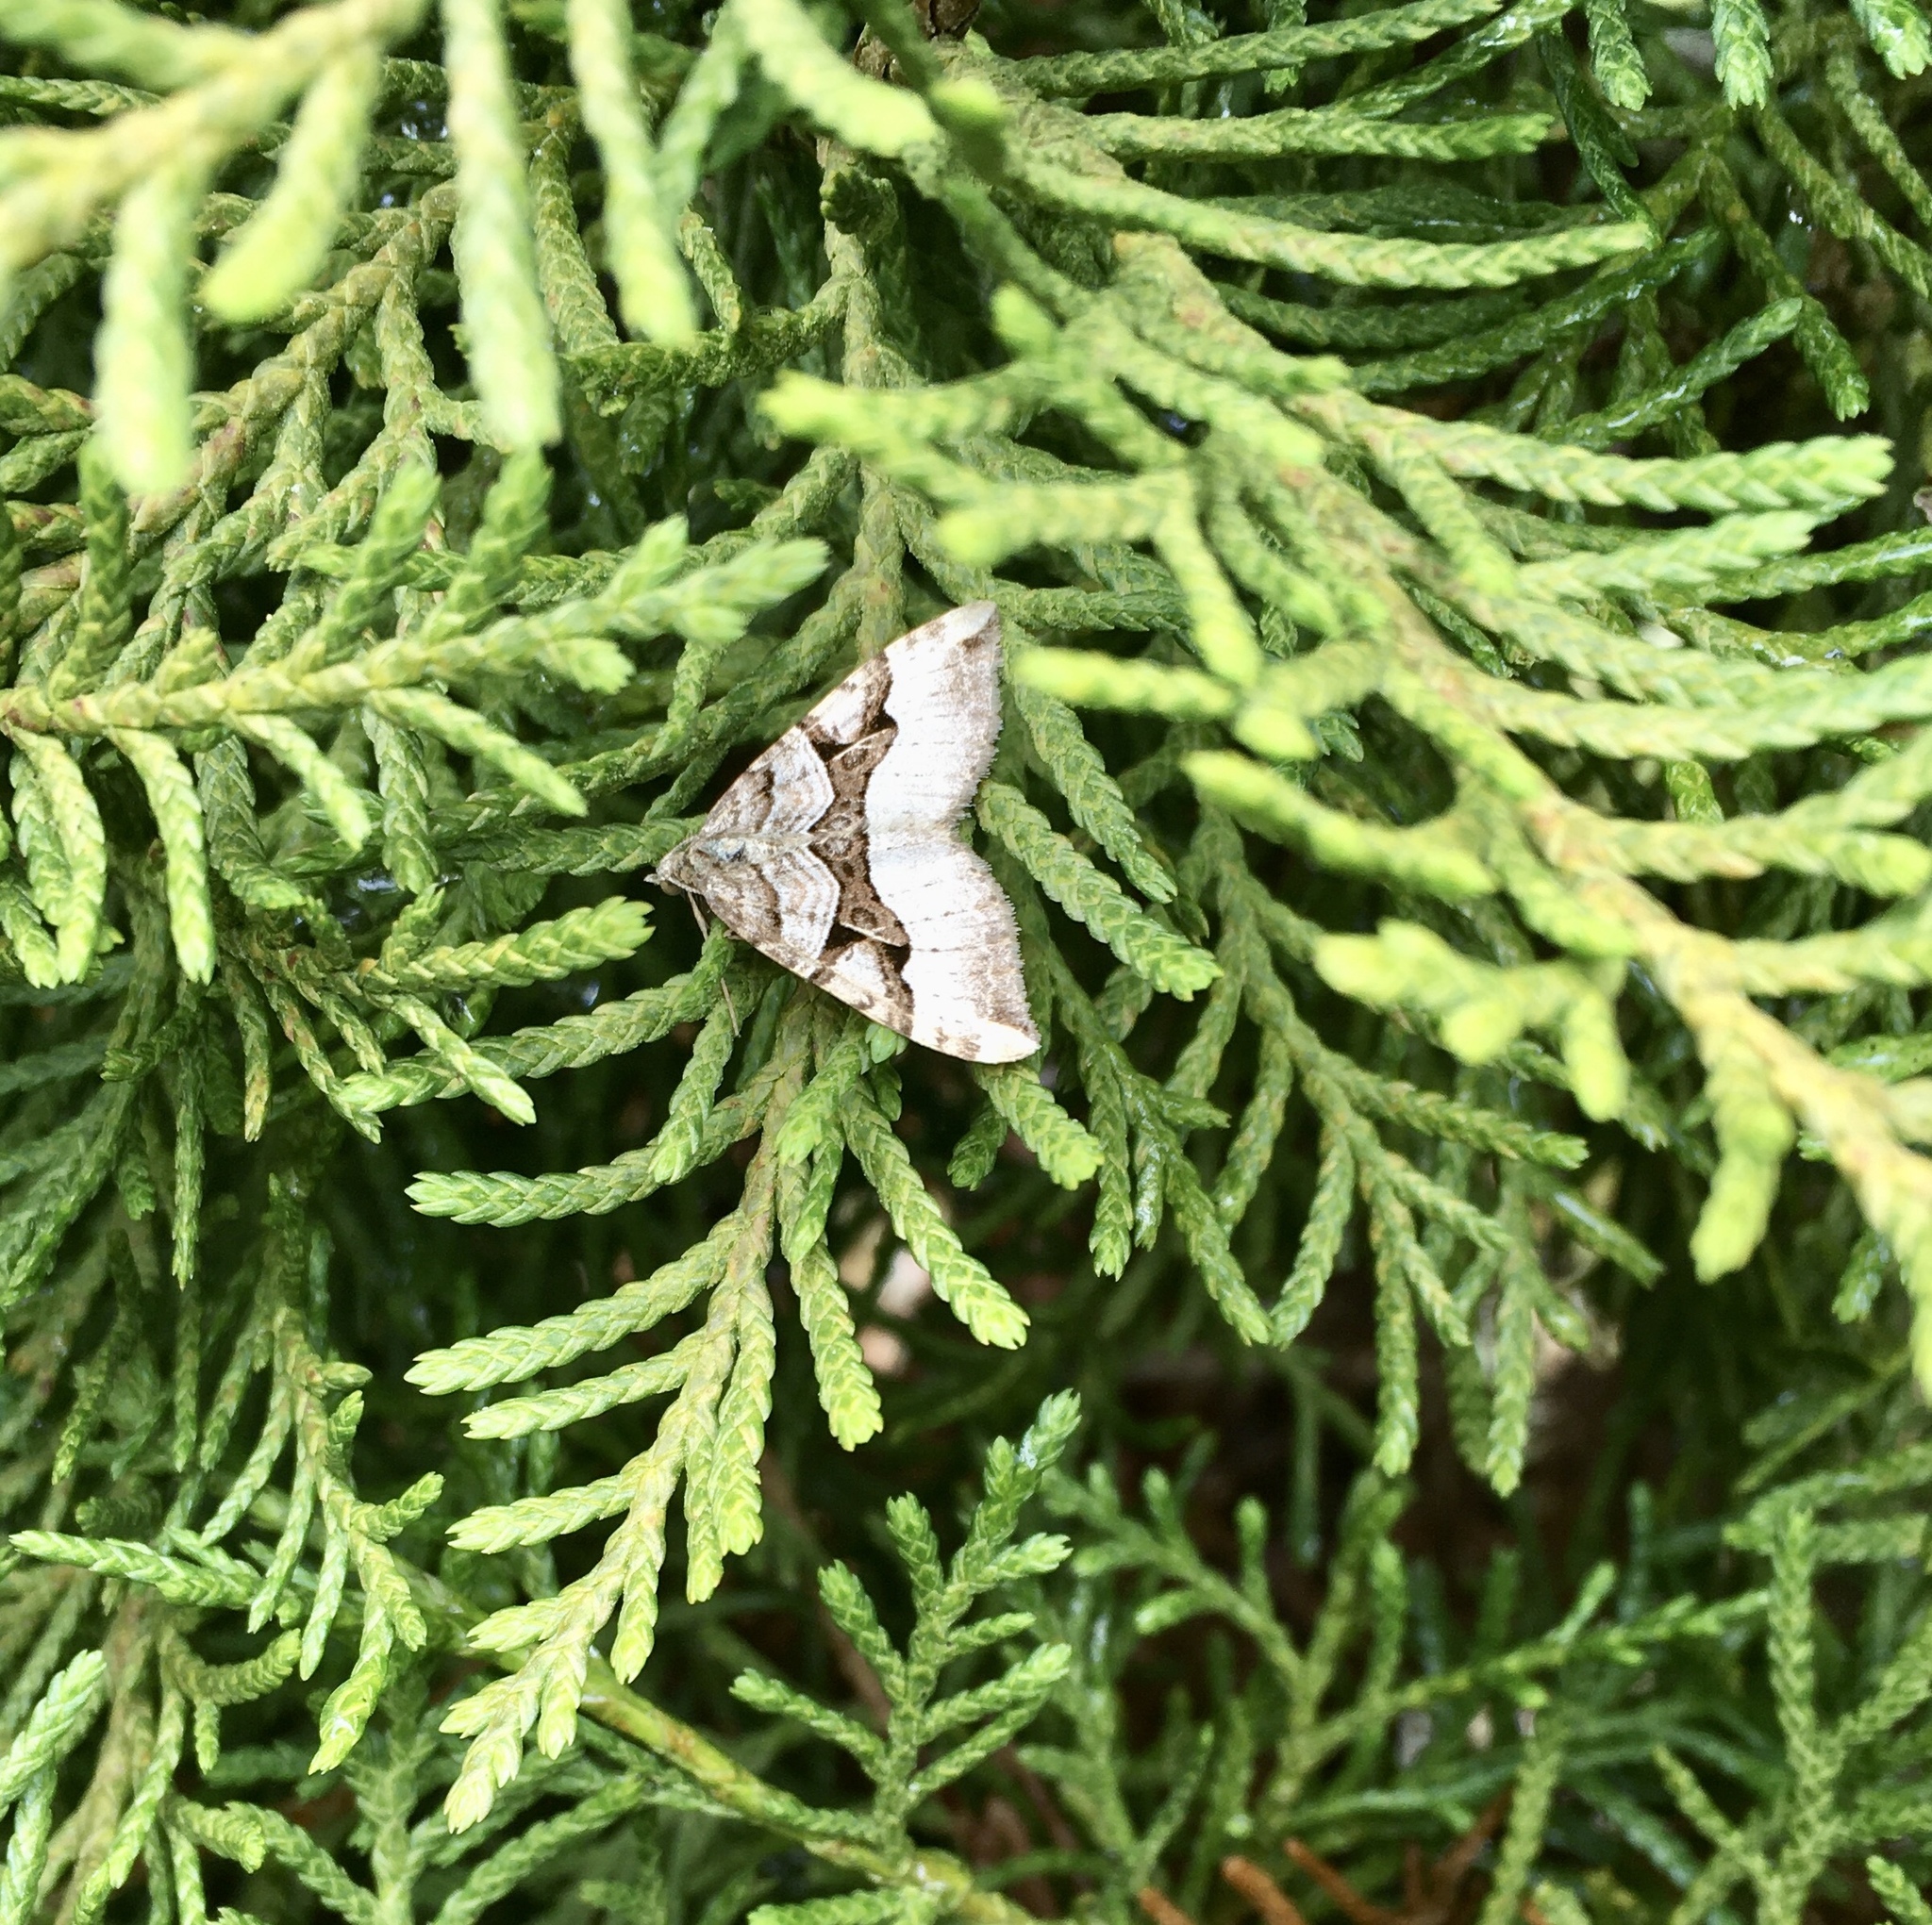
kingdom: Animalia
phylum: Arthropoda
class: Insecta
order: Lepidoptera
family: Geometridae
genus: Xanthorhoe
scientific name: Xanthorhoe semifissata
